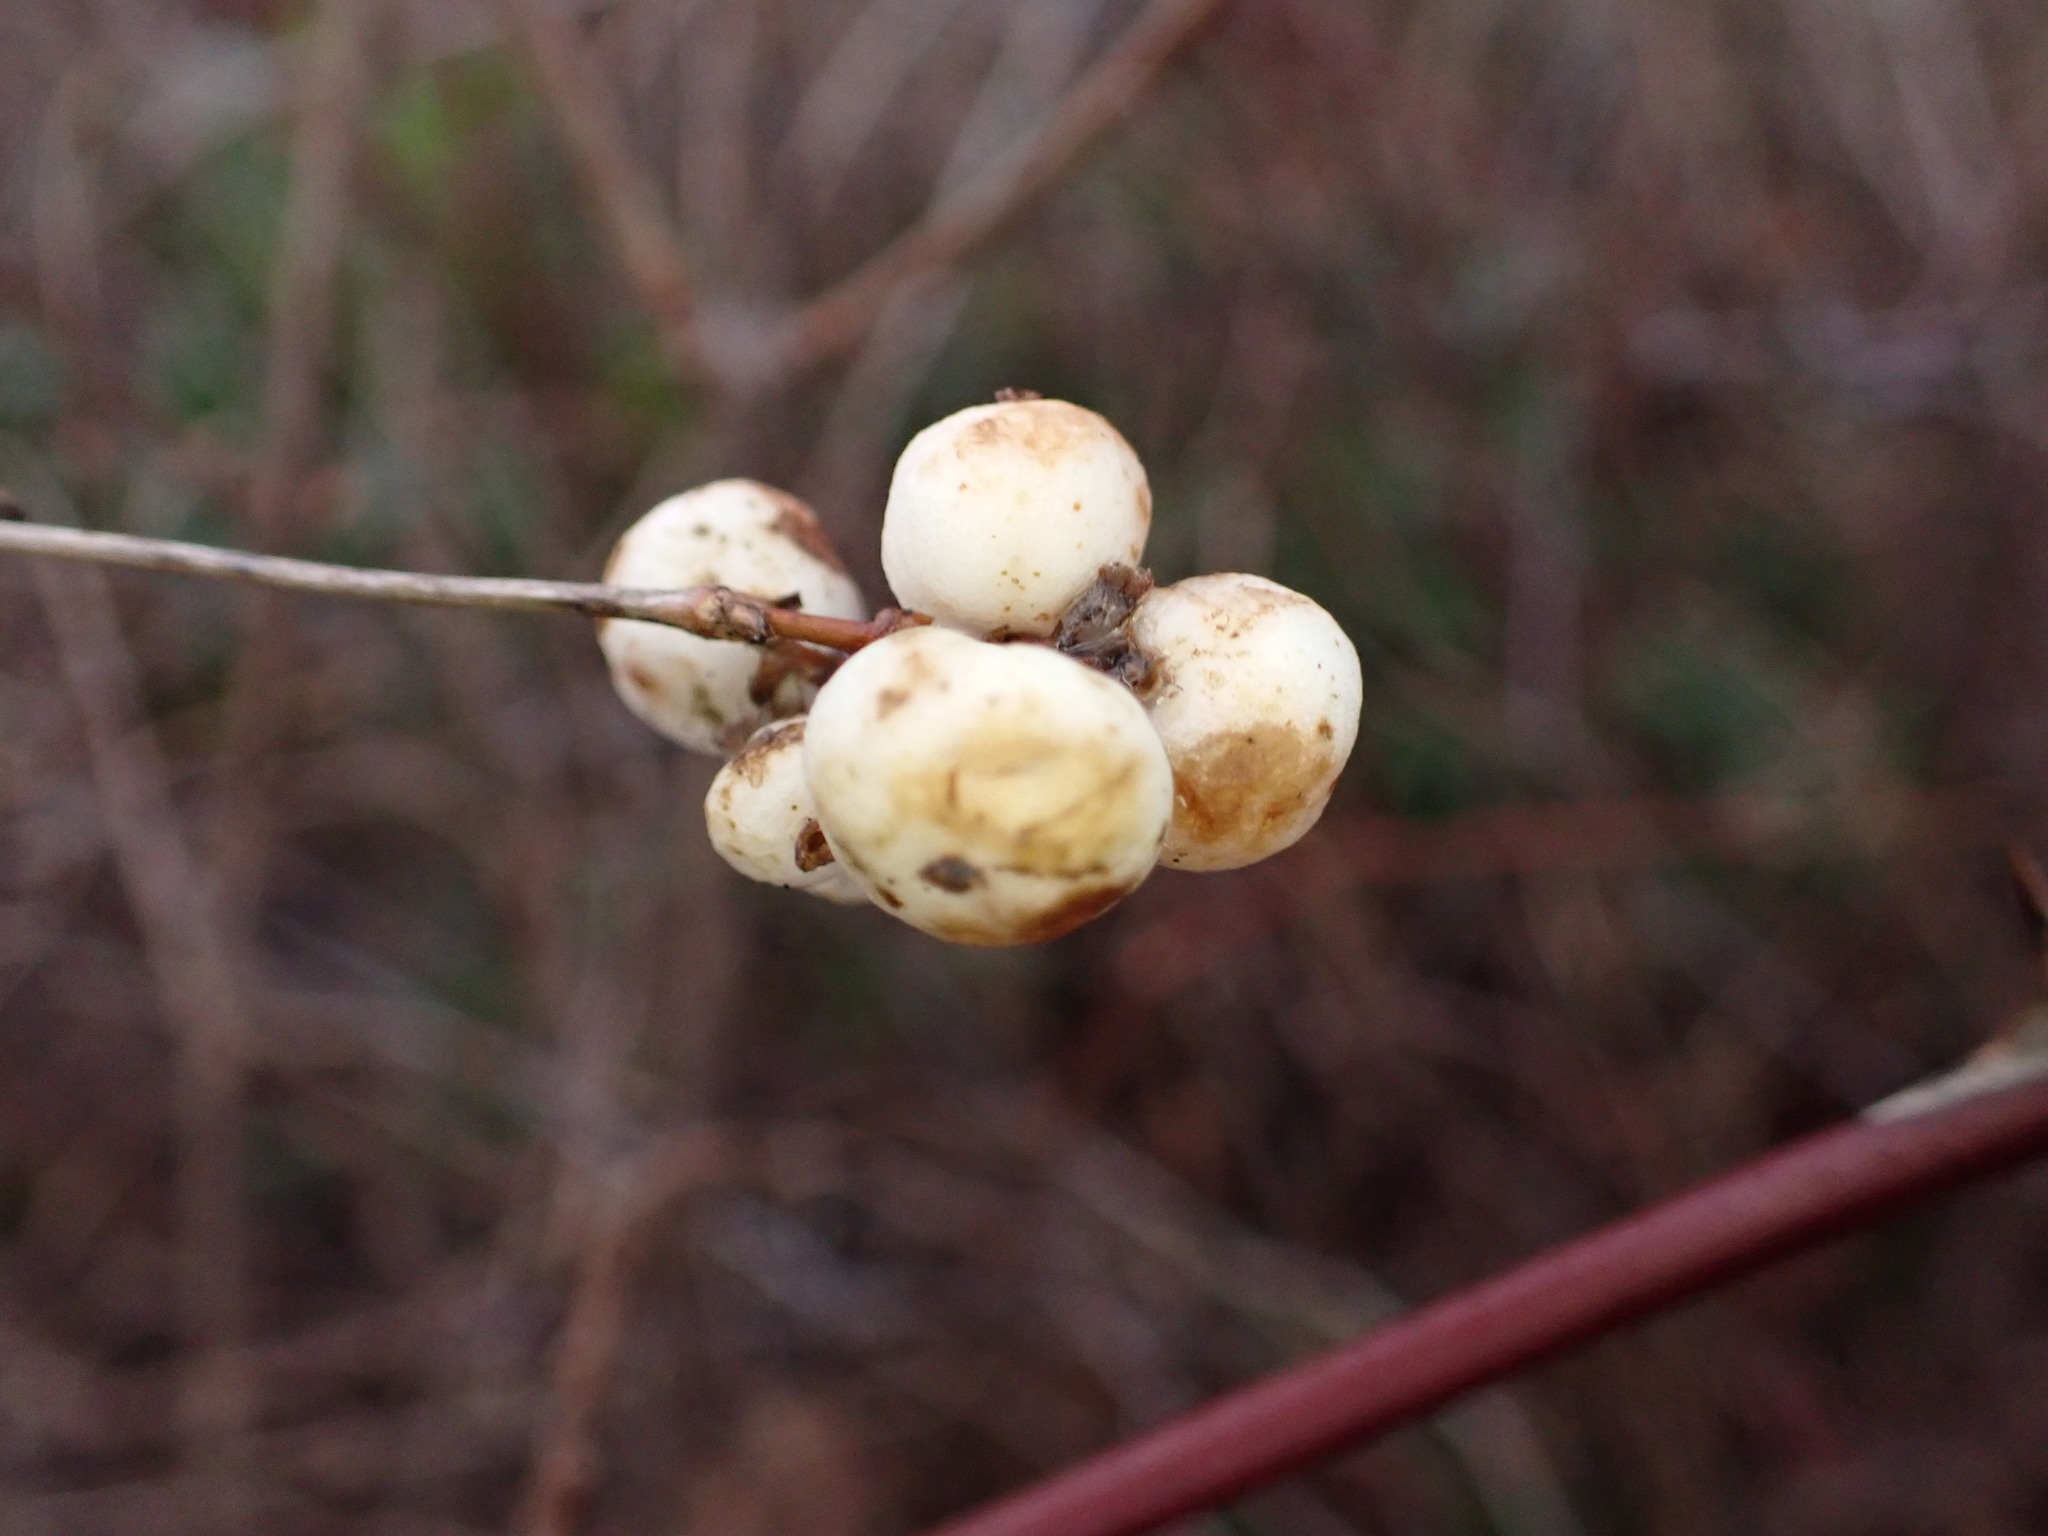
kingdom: Plantae
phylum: Tracheophyta
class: Magnoliopsida
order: Dipsacales
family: Caprifoliaceae
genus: Symphoricarpos
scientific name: Symphoricarpos albus
